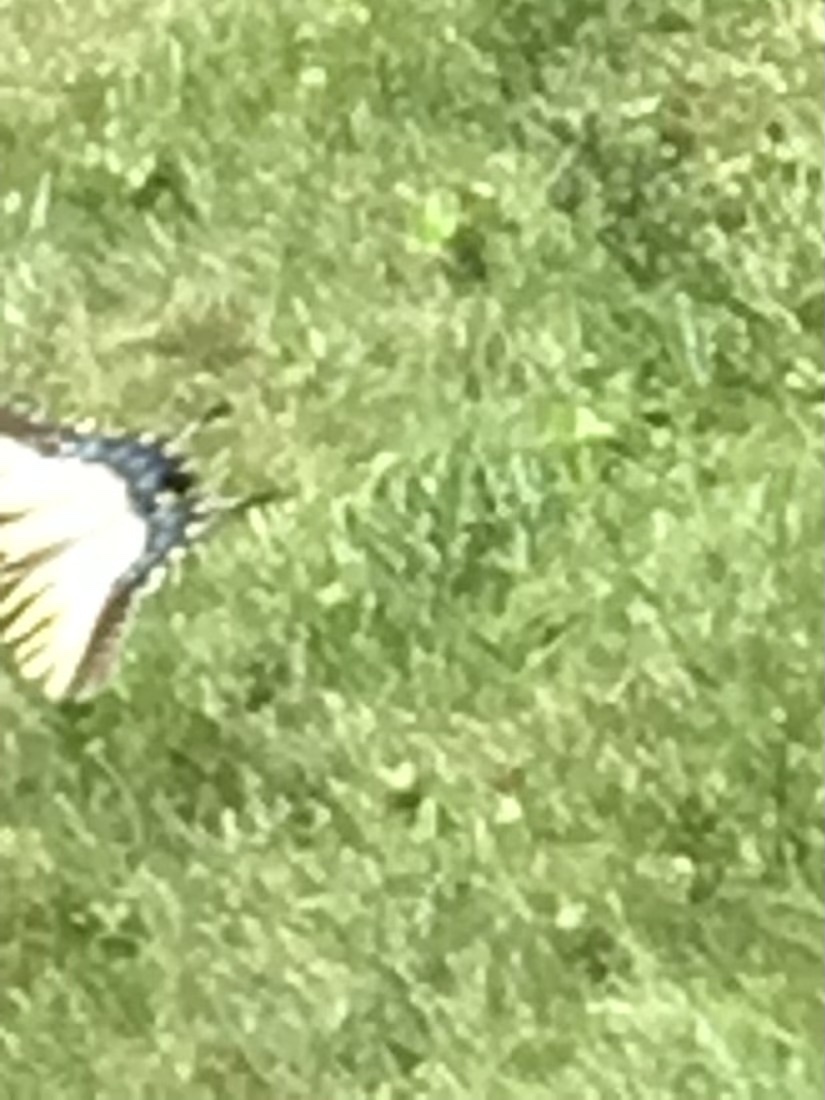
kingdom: Animalia
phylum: Arthropoda
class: Insecta
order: Lepidoptera
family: Papilionidae
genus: Papilio
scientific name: Papilio glaucus
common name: Tiger swallowtail
